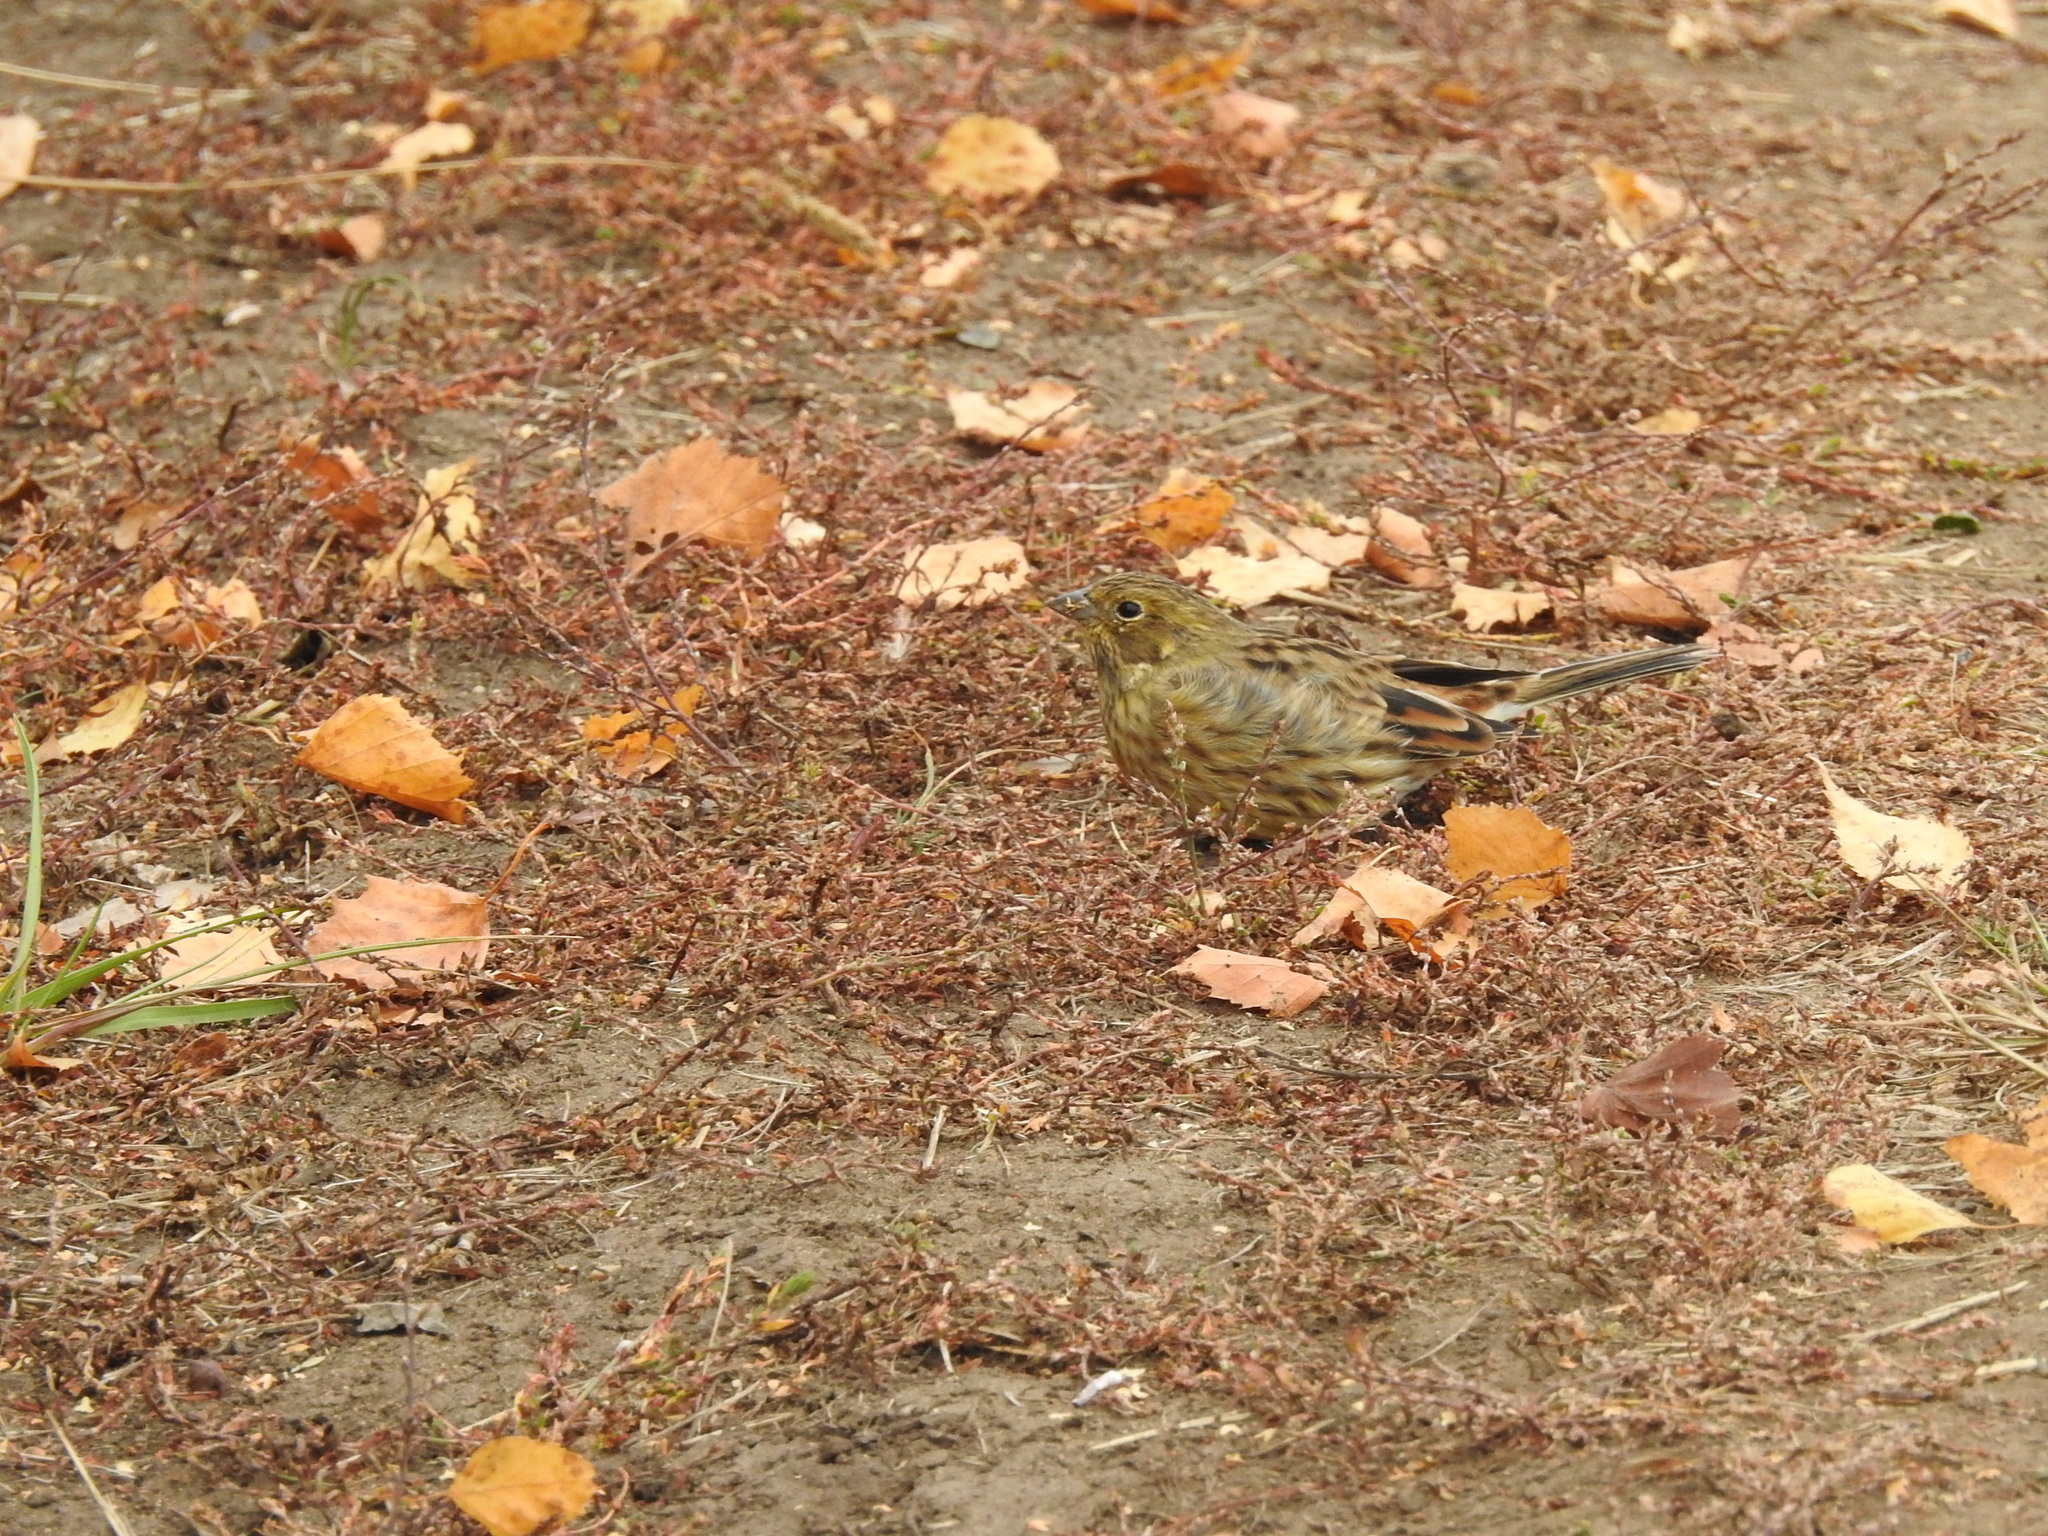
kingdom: Animalia
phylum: Chordata
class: Aves
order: Passeriformes
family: Emberizidae
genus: Emberiza
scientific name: Emberiza
